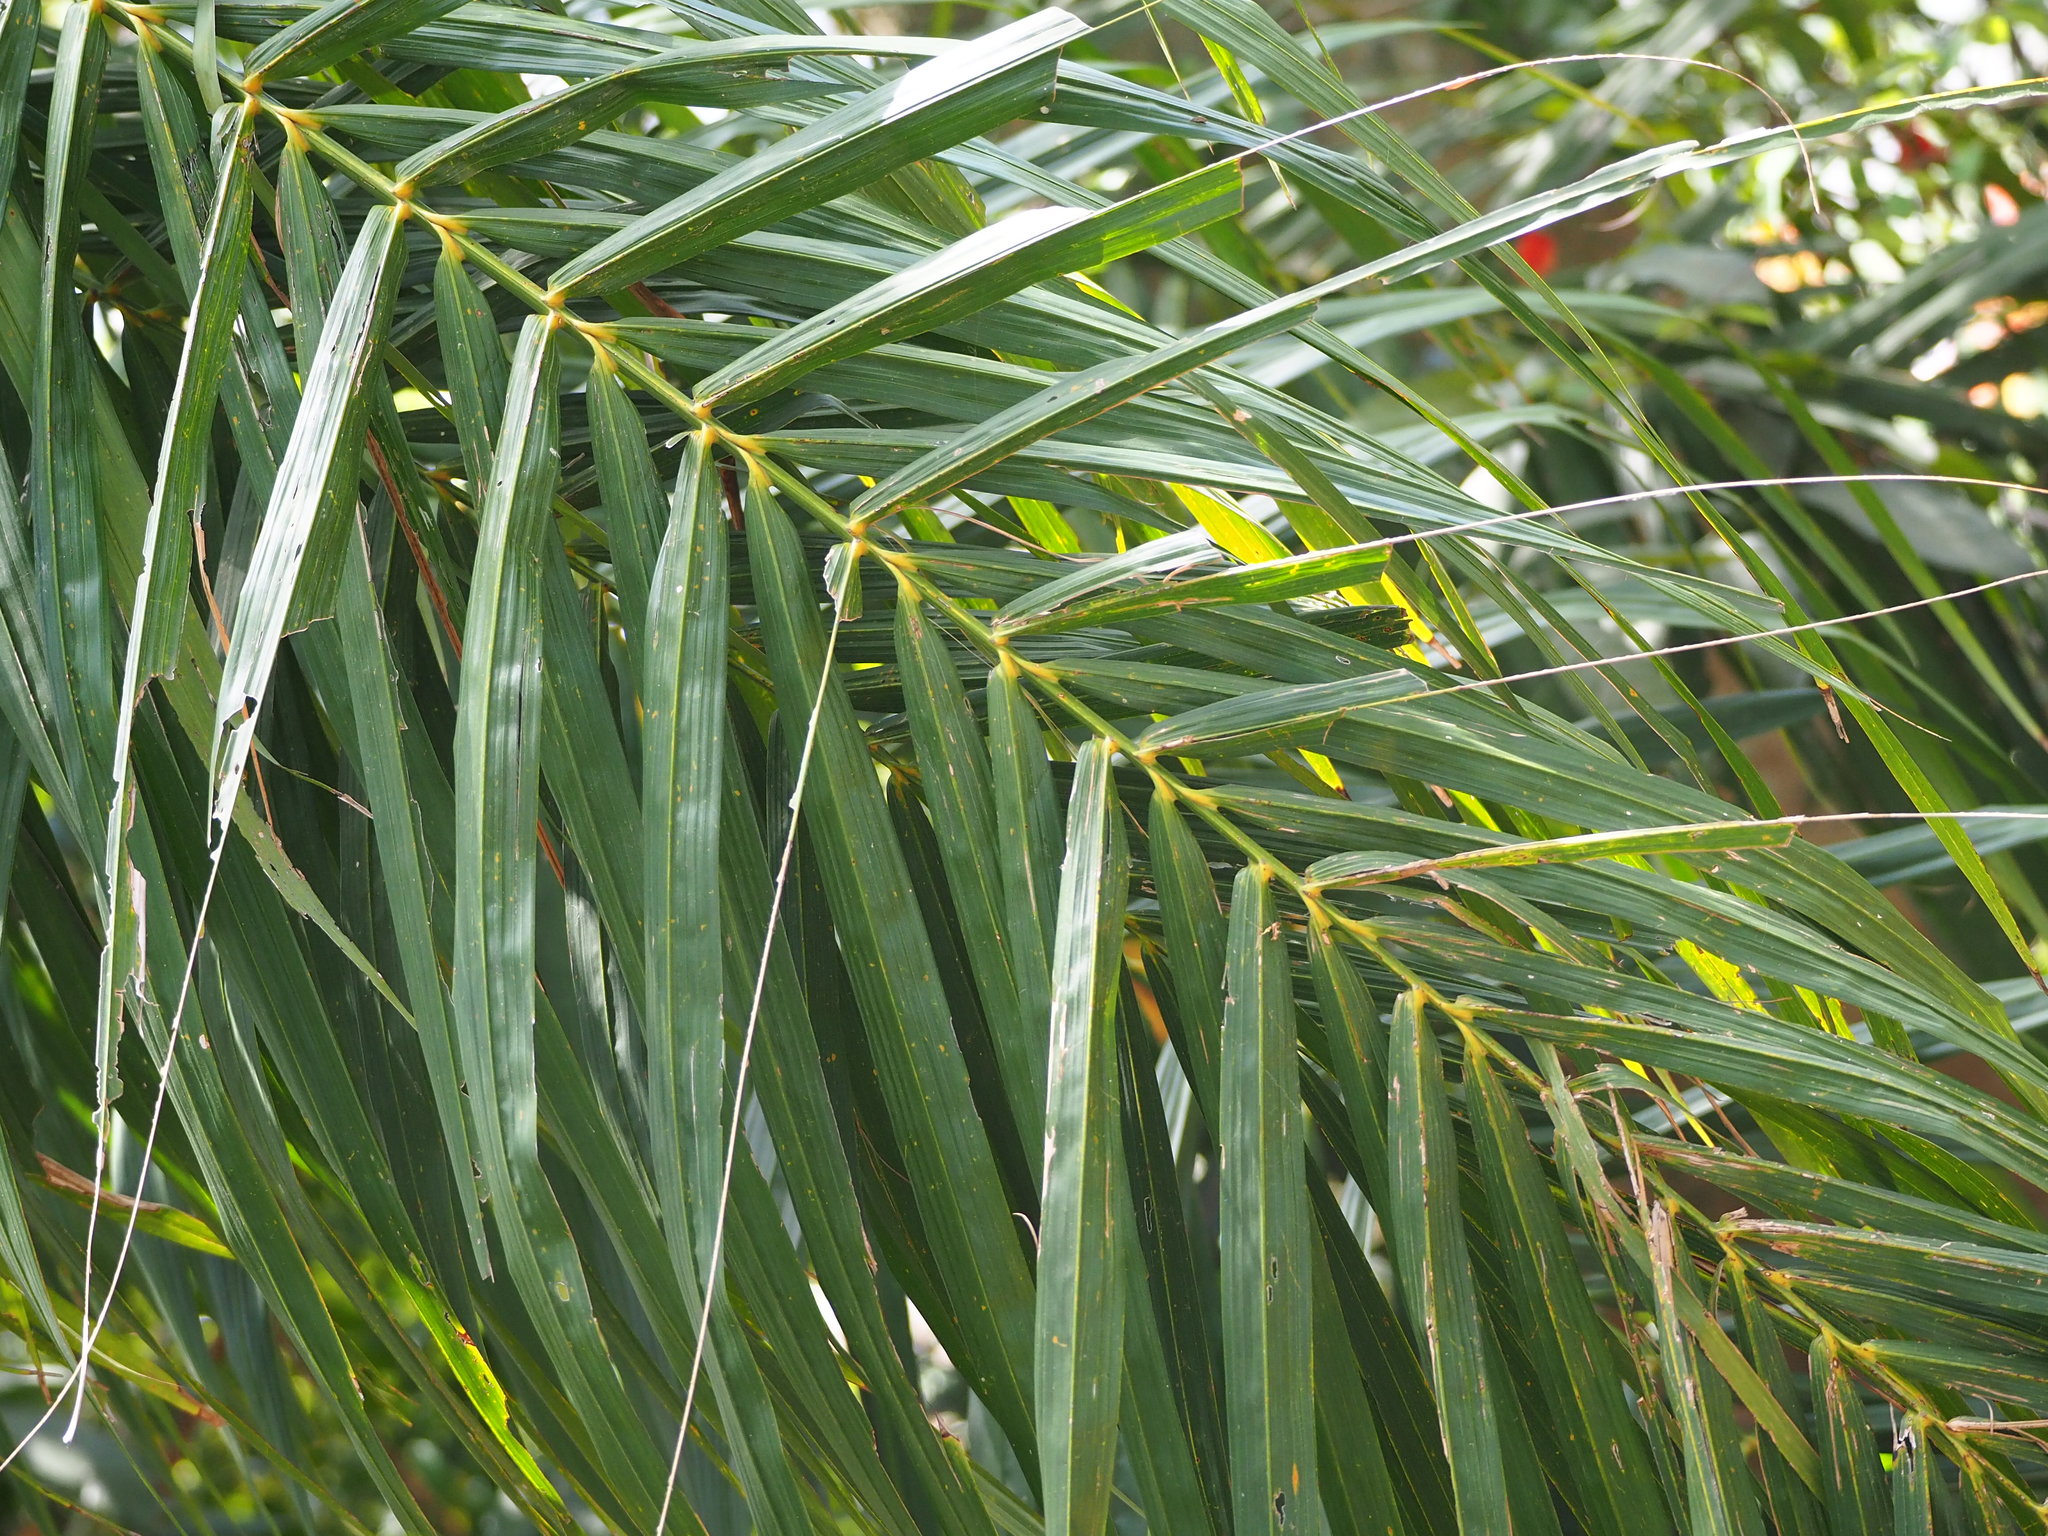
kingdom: Plantae
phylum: Tracheophyta
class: Liliopsida
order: Arecales
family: Arecaceae
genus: Elaeis
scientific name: Elaeis guineensis
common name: Oil palm
